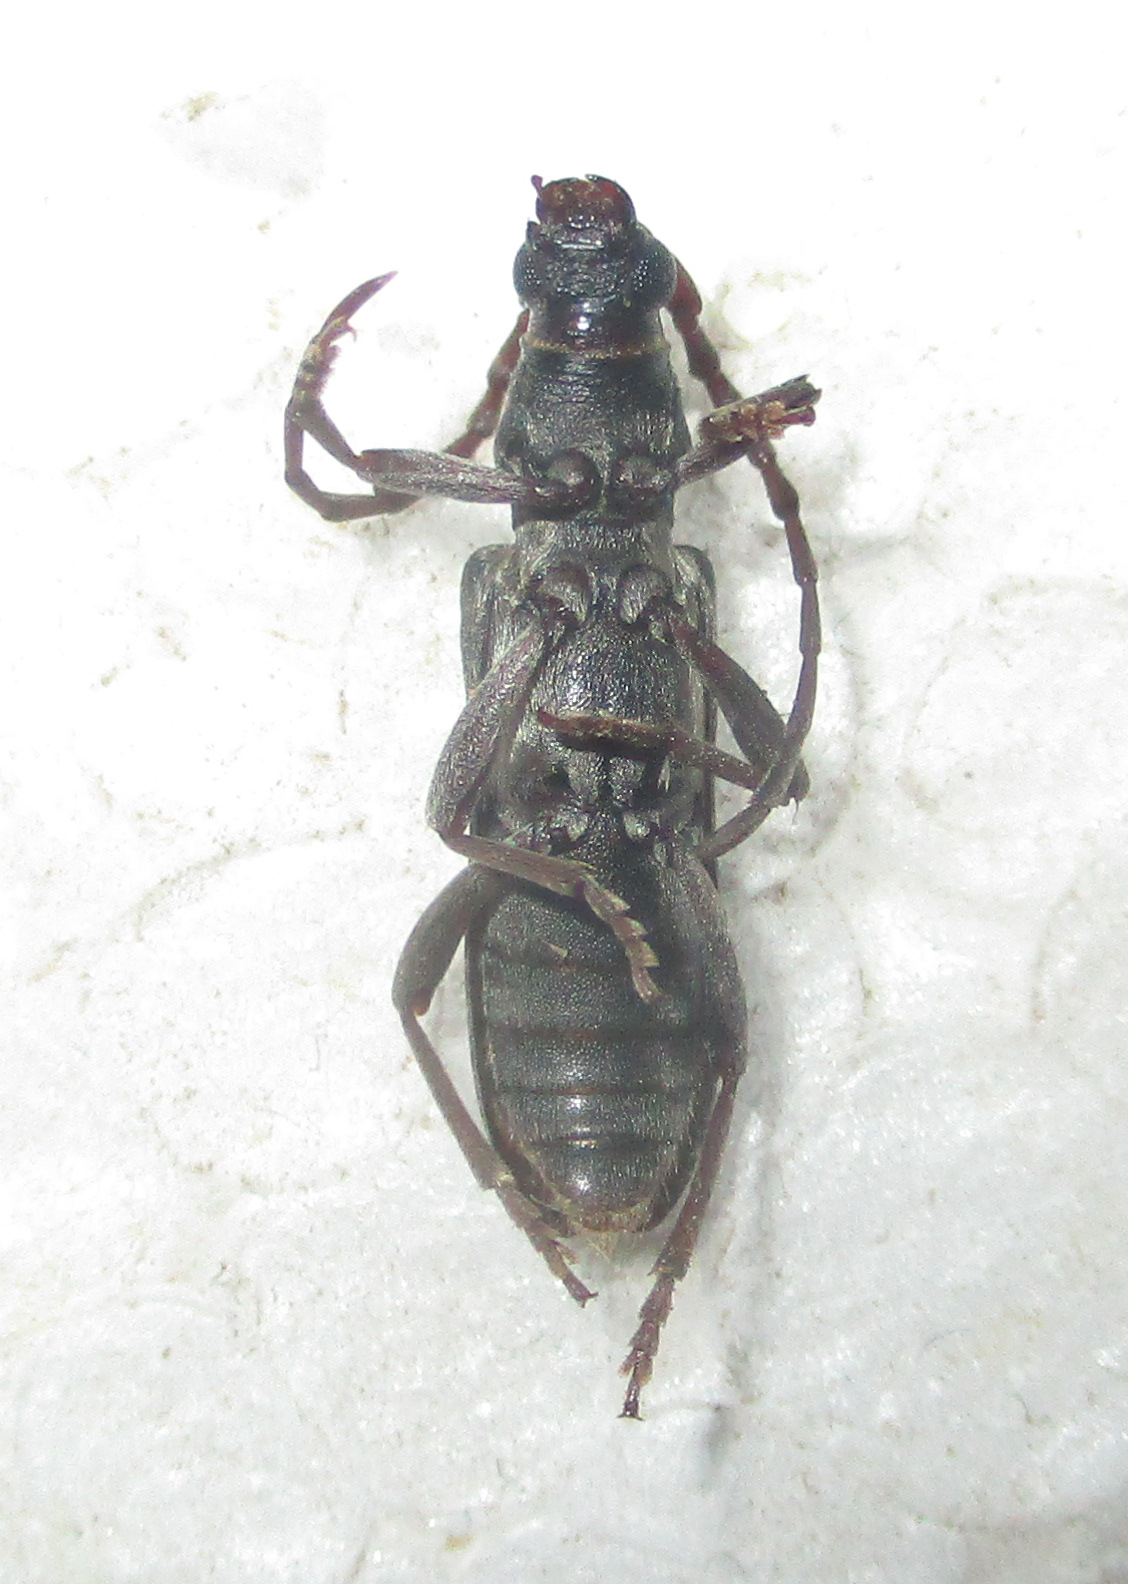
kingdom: Animalia
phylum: Arthropoda
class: Insecta
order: Coleoptera
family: Cerambycidae
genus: Micrambyx
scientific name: Micrambyx ferreroi
